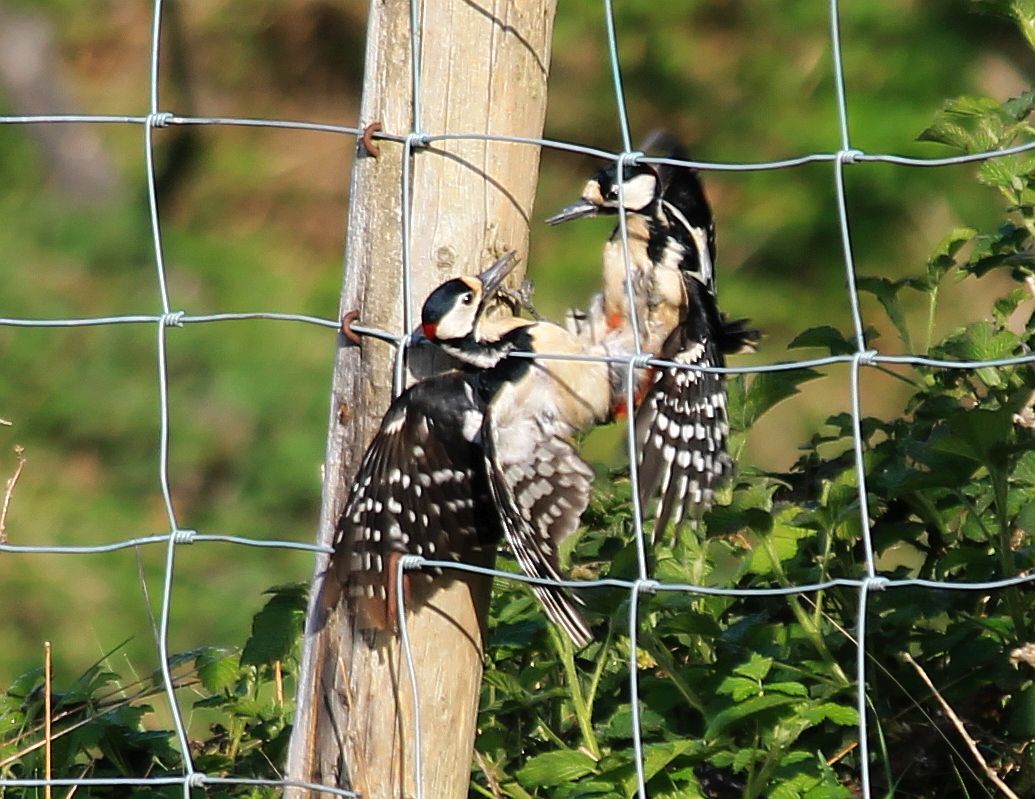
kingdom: Animalia
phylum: Chordata
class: Aves
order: Piciformes
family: Picidae
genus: Dendrocopos
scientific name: Dendrocopos major
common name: Great spotted woodpecker
